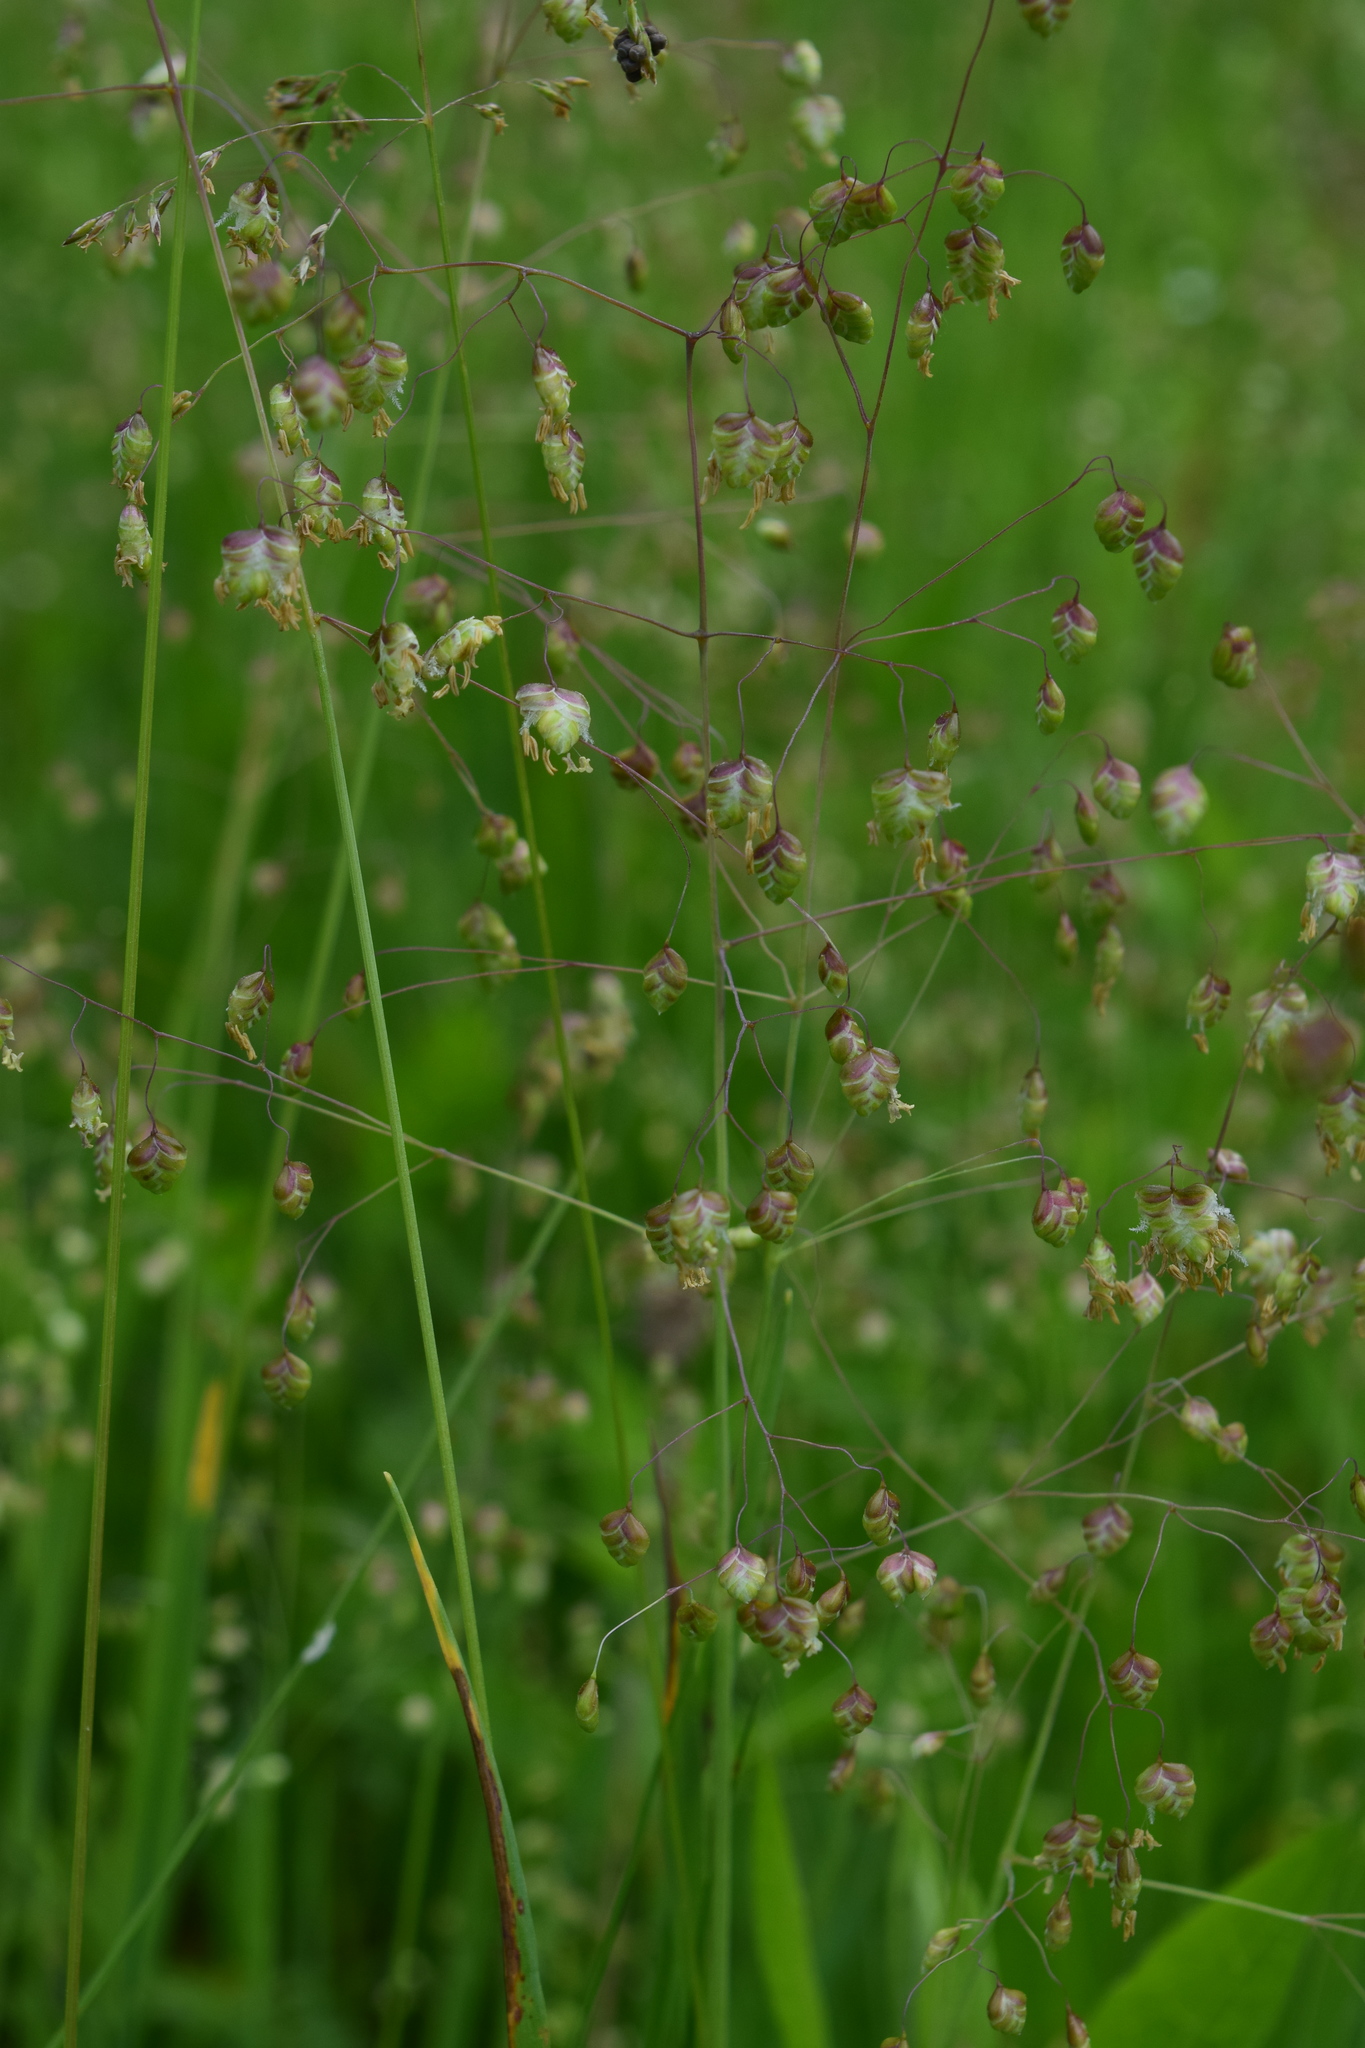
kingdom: Plantae
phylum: Tracheophyta
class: Liliopsida
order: Poales
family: Poaceae
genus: Briza
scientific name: Briza media
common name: Quaking grass
